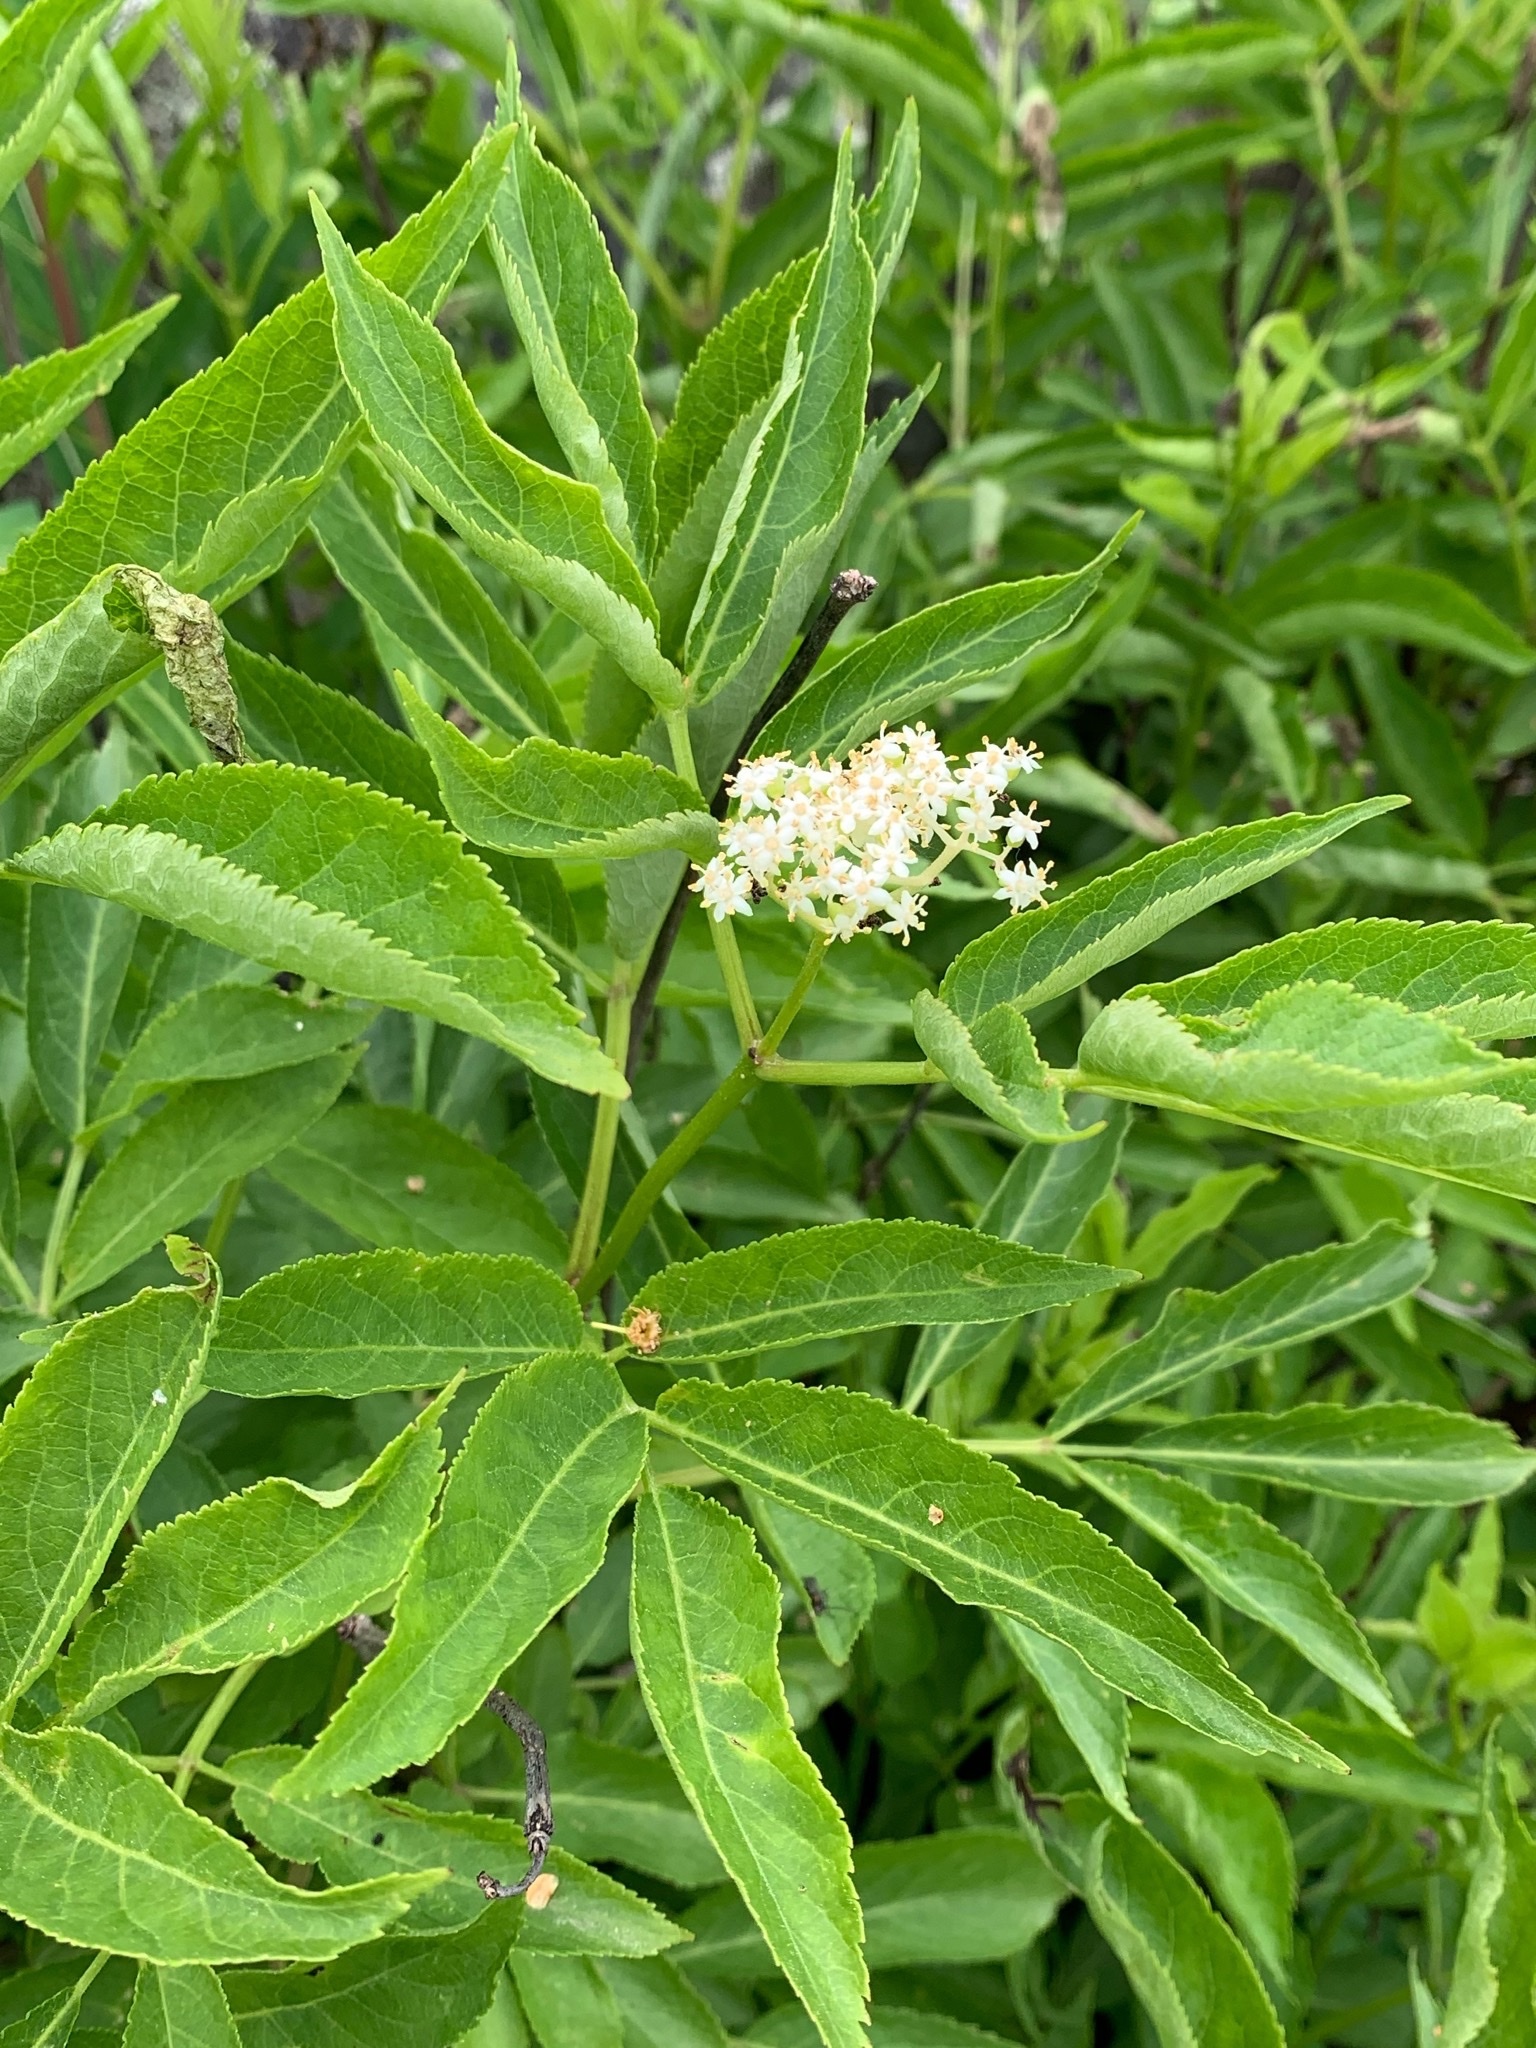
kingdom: Plantae
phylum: Tracheophyta
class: Magnoliopsida
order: Dipsacales
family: Viburnaceae
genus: Sambucus
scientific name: Sambucus racemosa
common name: Red-berried elder
